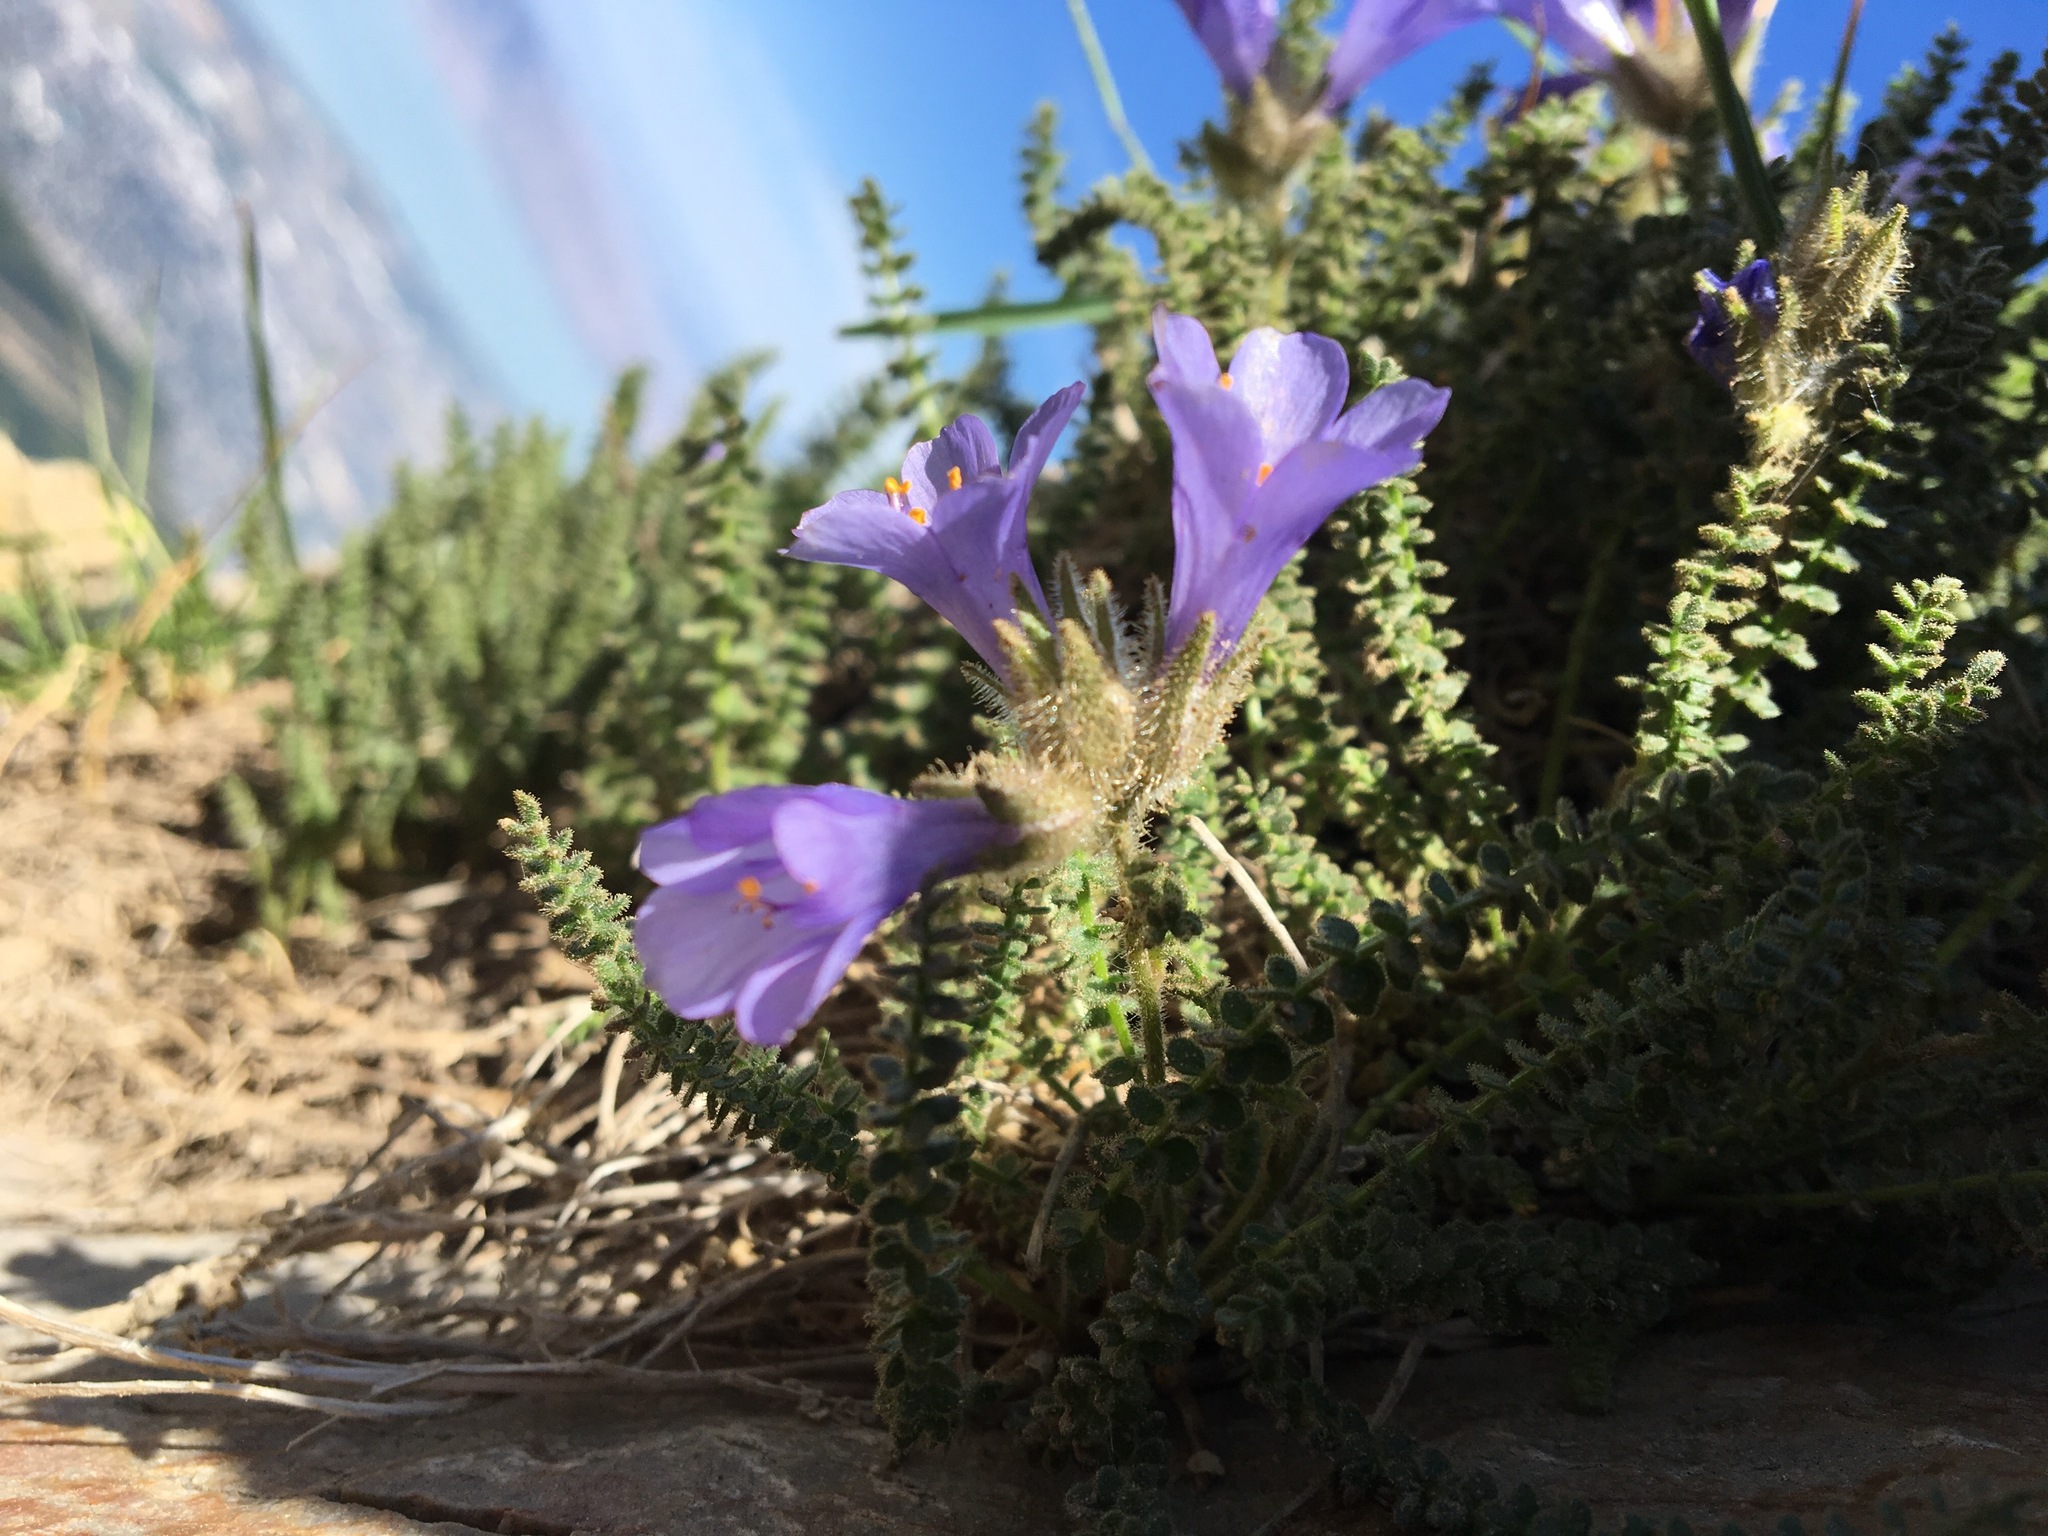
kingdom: Plantae
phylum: Tracheophyta
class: Magnoliopsida
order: Ericales
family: Polemoniaceae
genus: Polemonium
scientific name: Polemonium viscosum
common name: Skunk jacob's-ladder
